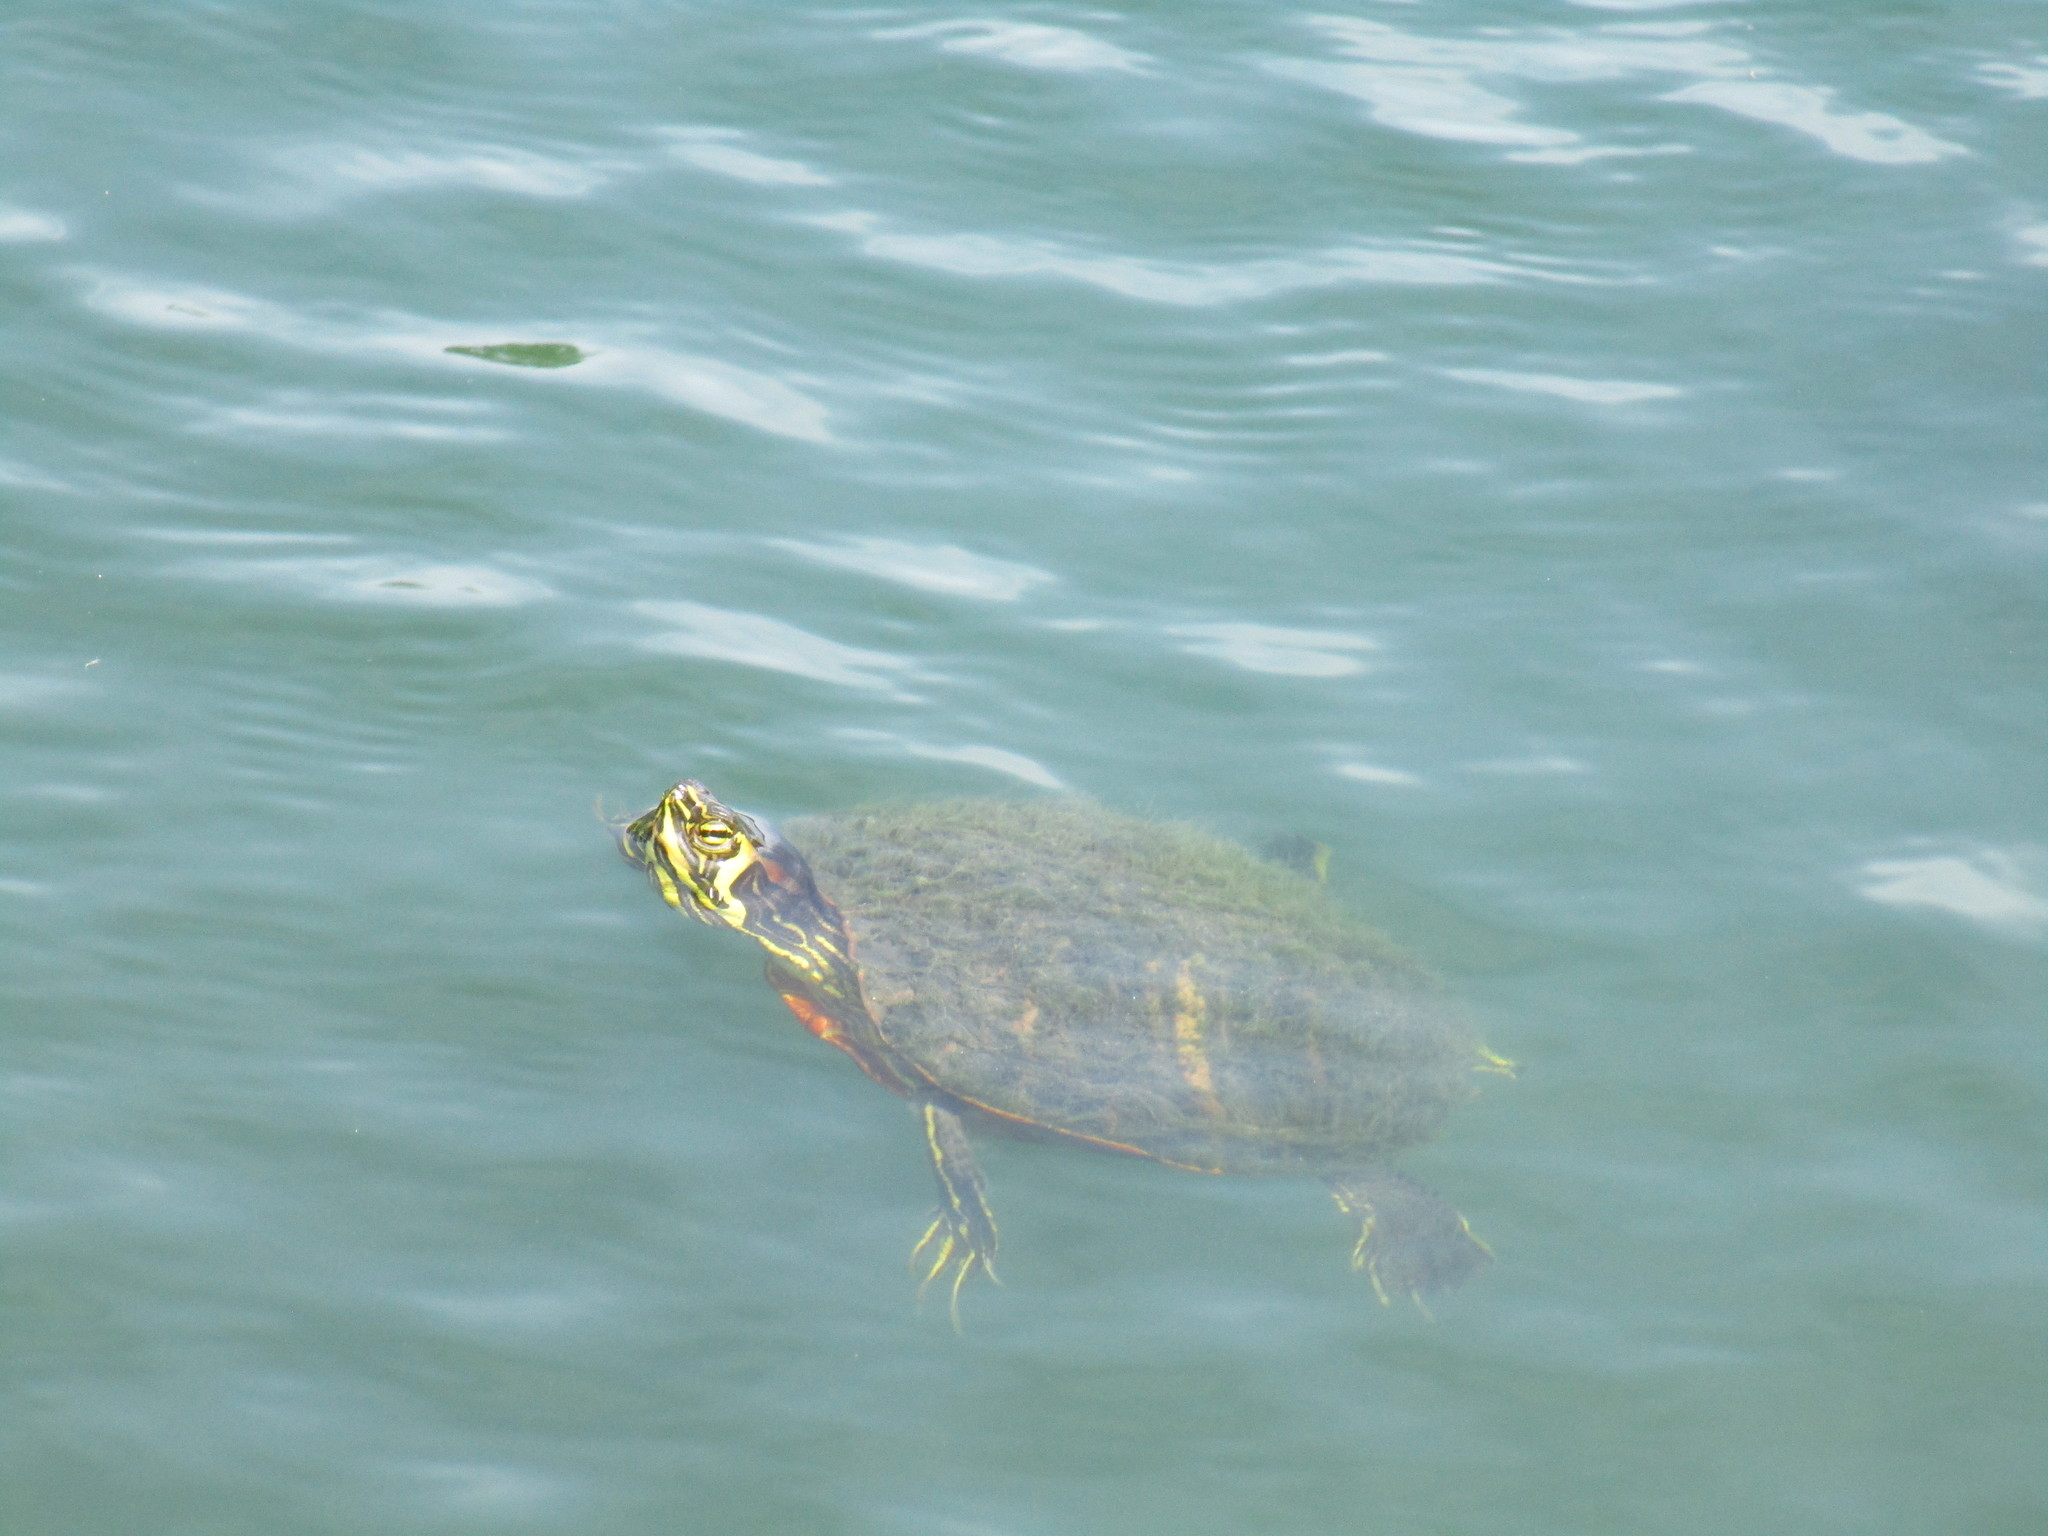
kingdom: Animalia
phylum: Chordata
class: Testudines
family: Emydidae
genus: Trachemys
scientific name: Trachemys scripta
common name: Slider
